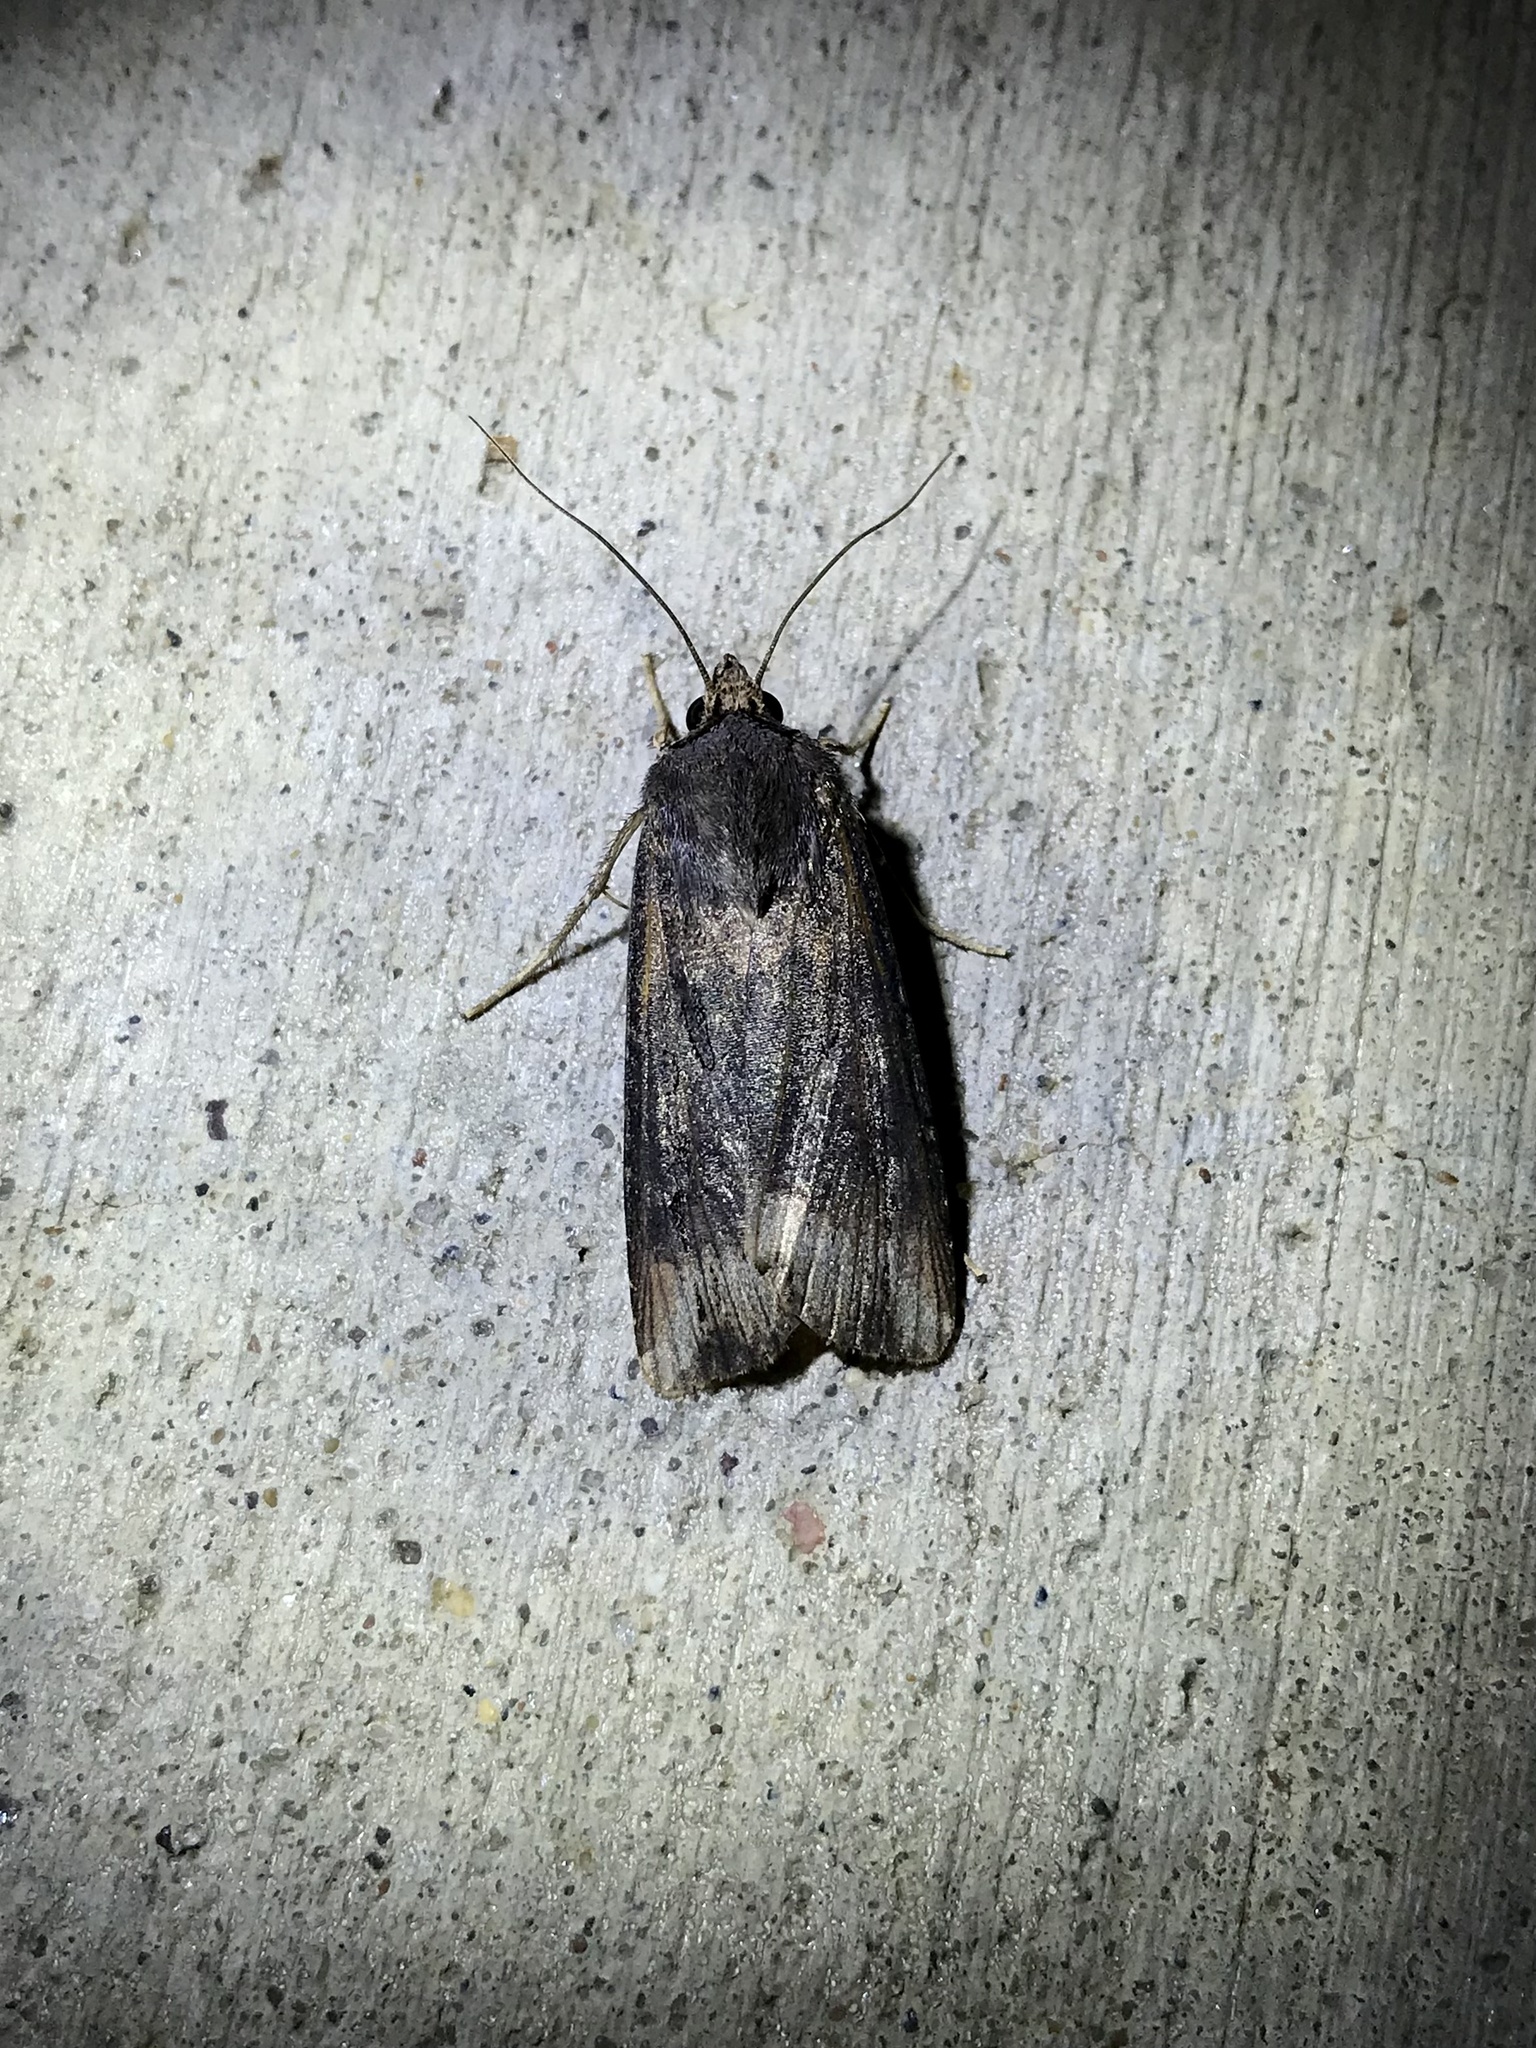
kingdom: Animalia
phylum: Arthropoda
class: Insecta
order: Lepidoptera
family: Noctuidae
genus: Agrotis
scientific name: Agrotis ipsilon
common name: Dark sword-grass
